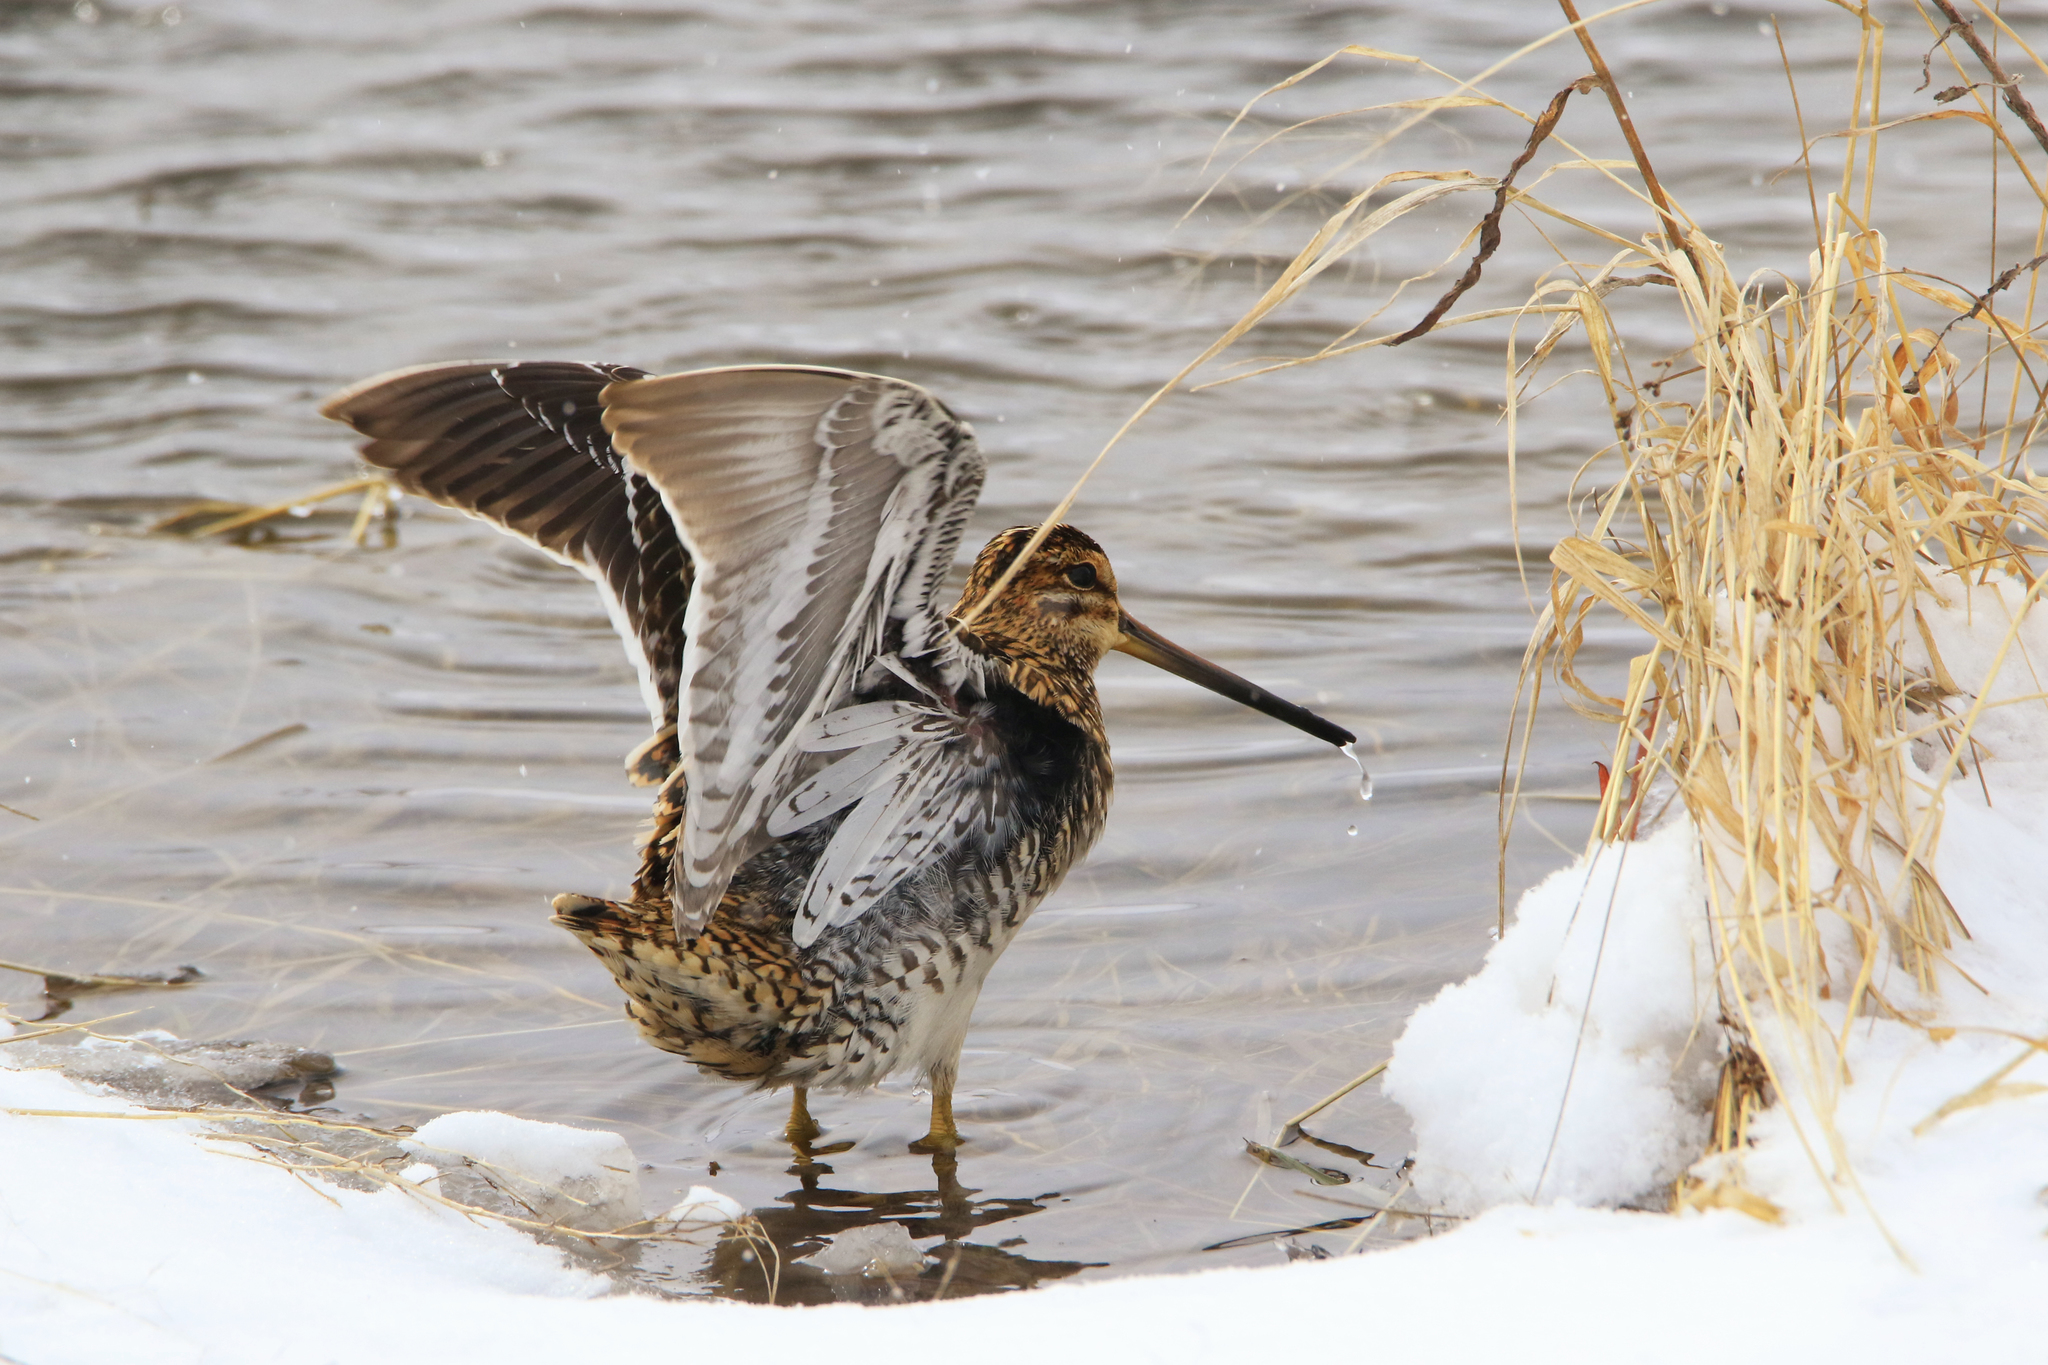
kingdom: Animalia
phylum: Chordata
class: Aves
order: Charadriiformes
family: Scolopacidae
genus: Gallinago
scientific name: Gallinago gallinago
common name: Common snipe
